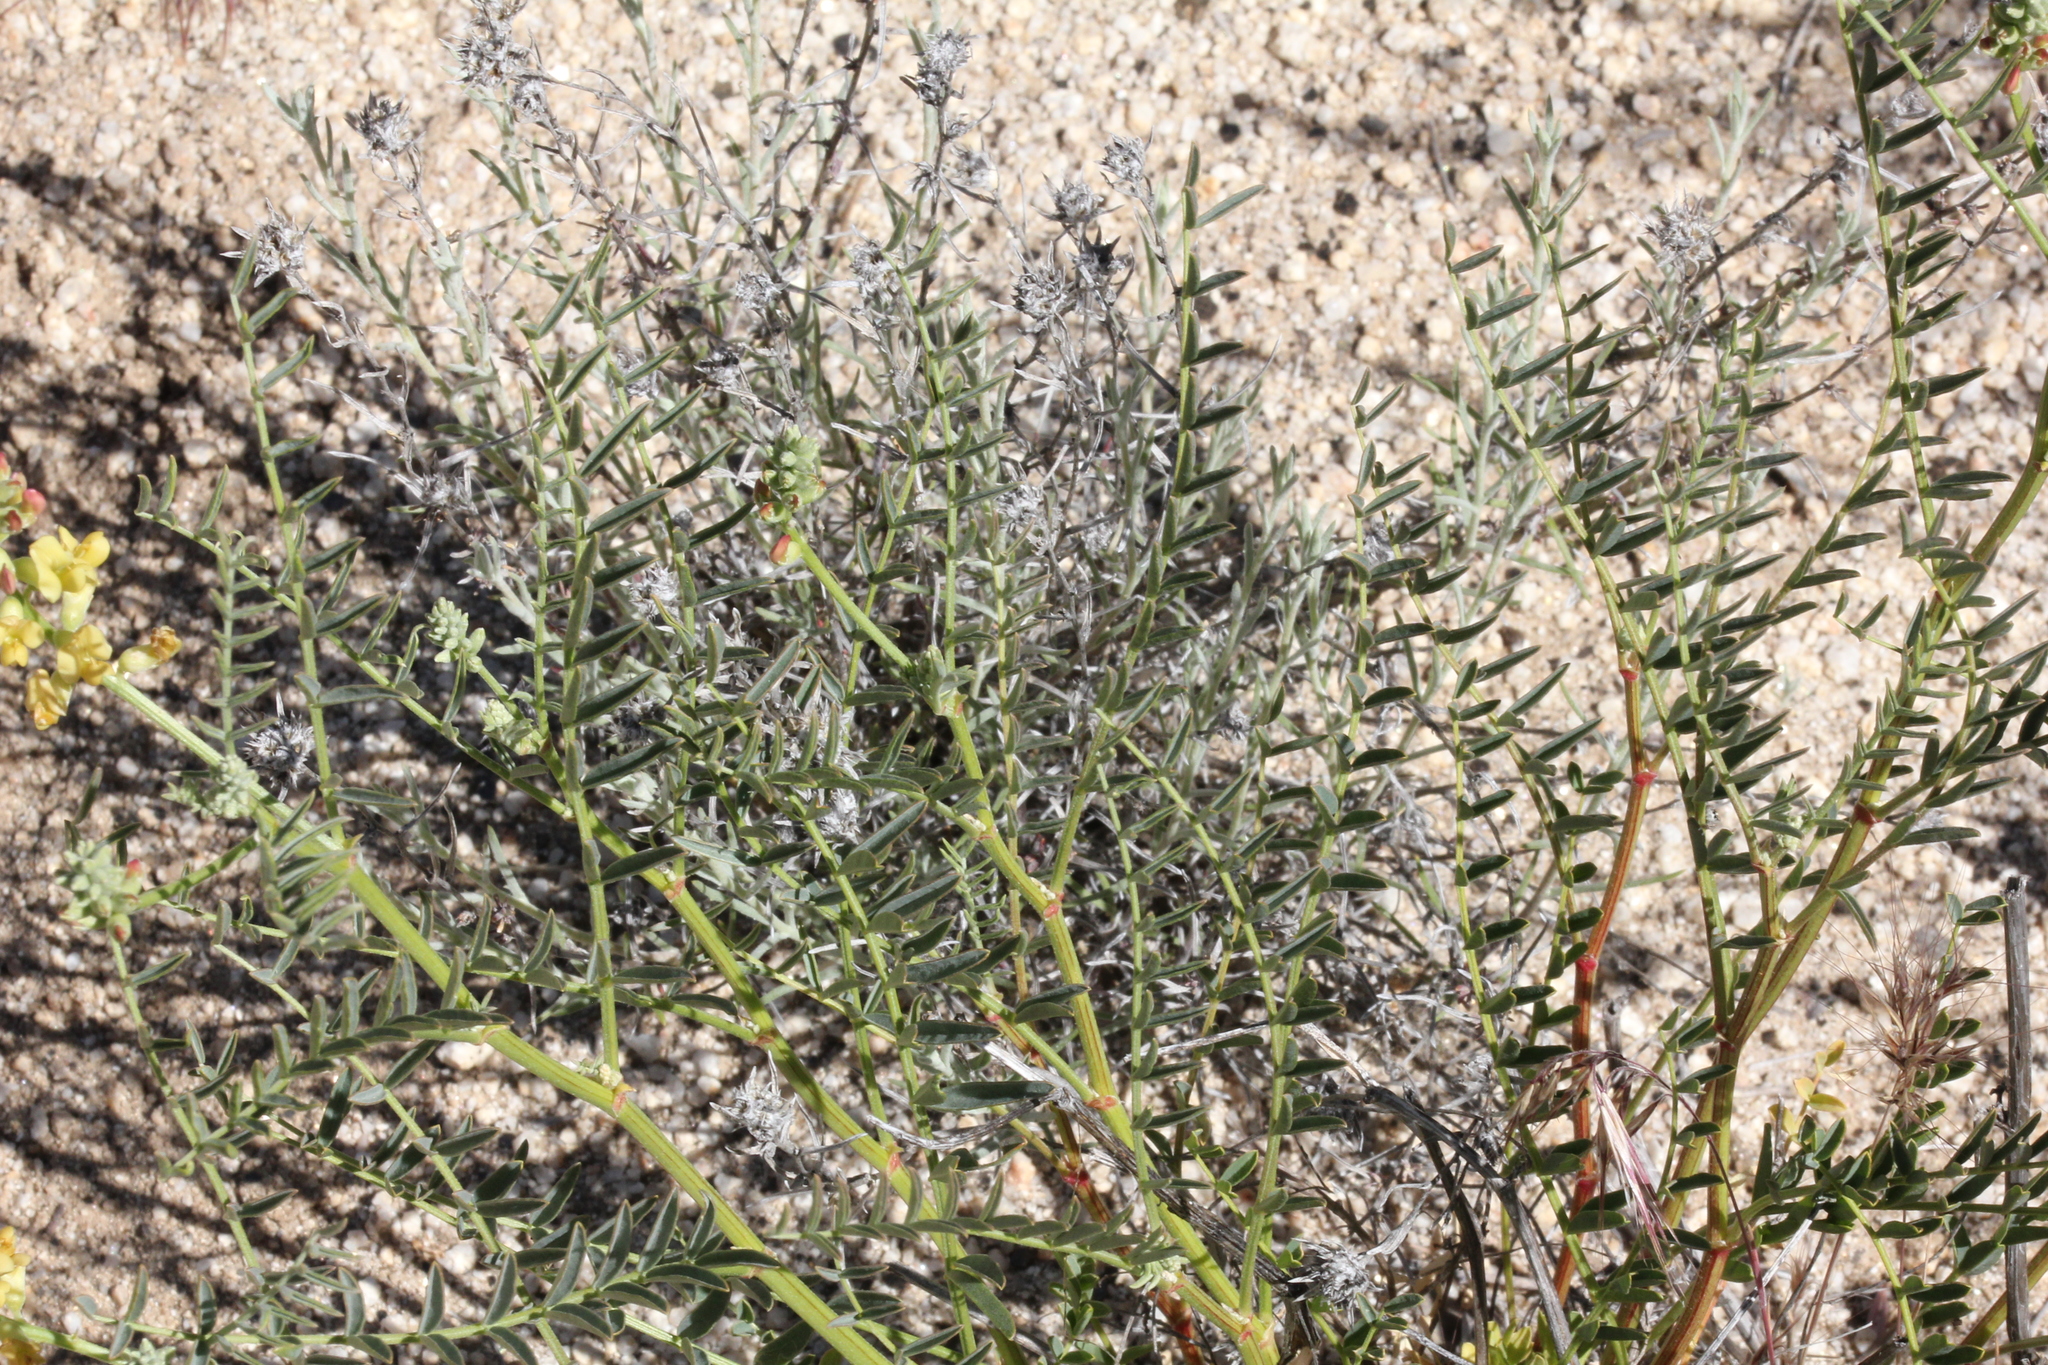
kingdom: Plantae
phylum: Tracheophyta
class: Magnoliopsida
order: Fabales
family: Fabaceae
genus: Astragalus
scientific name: Astragalus douglasii
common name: Jacumba milkvetch
